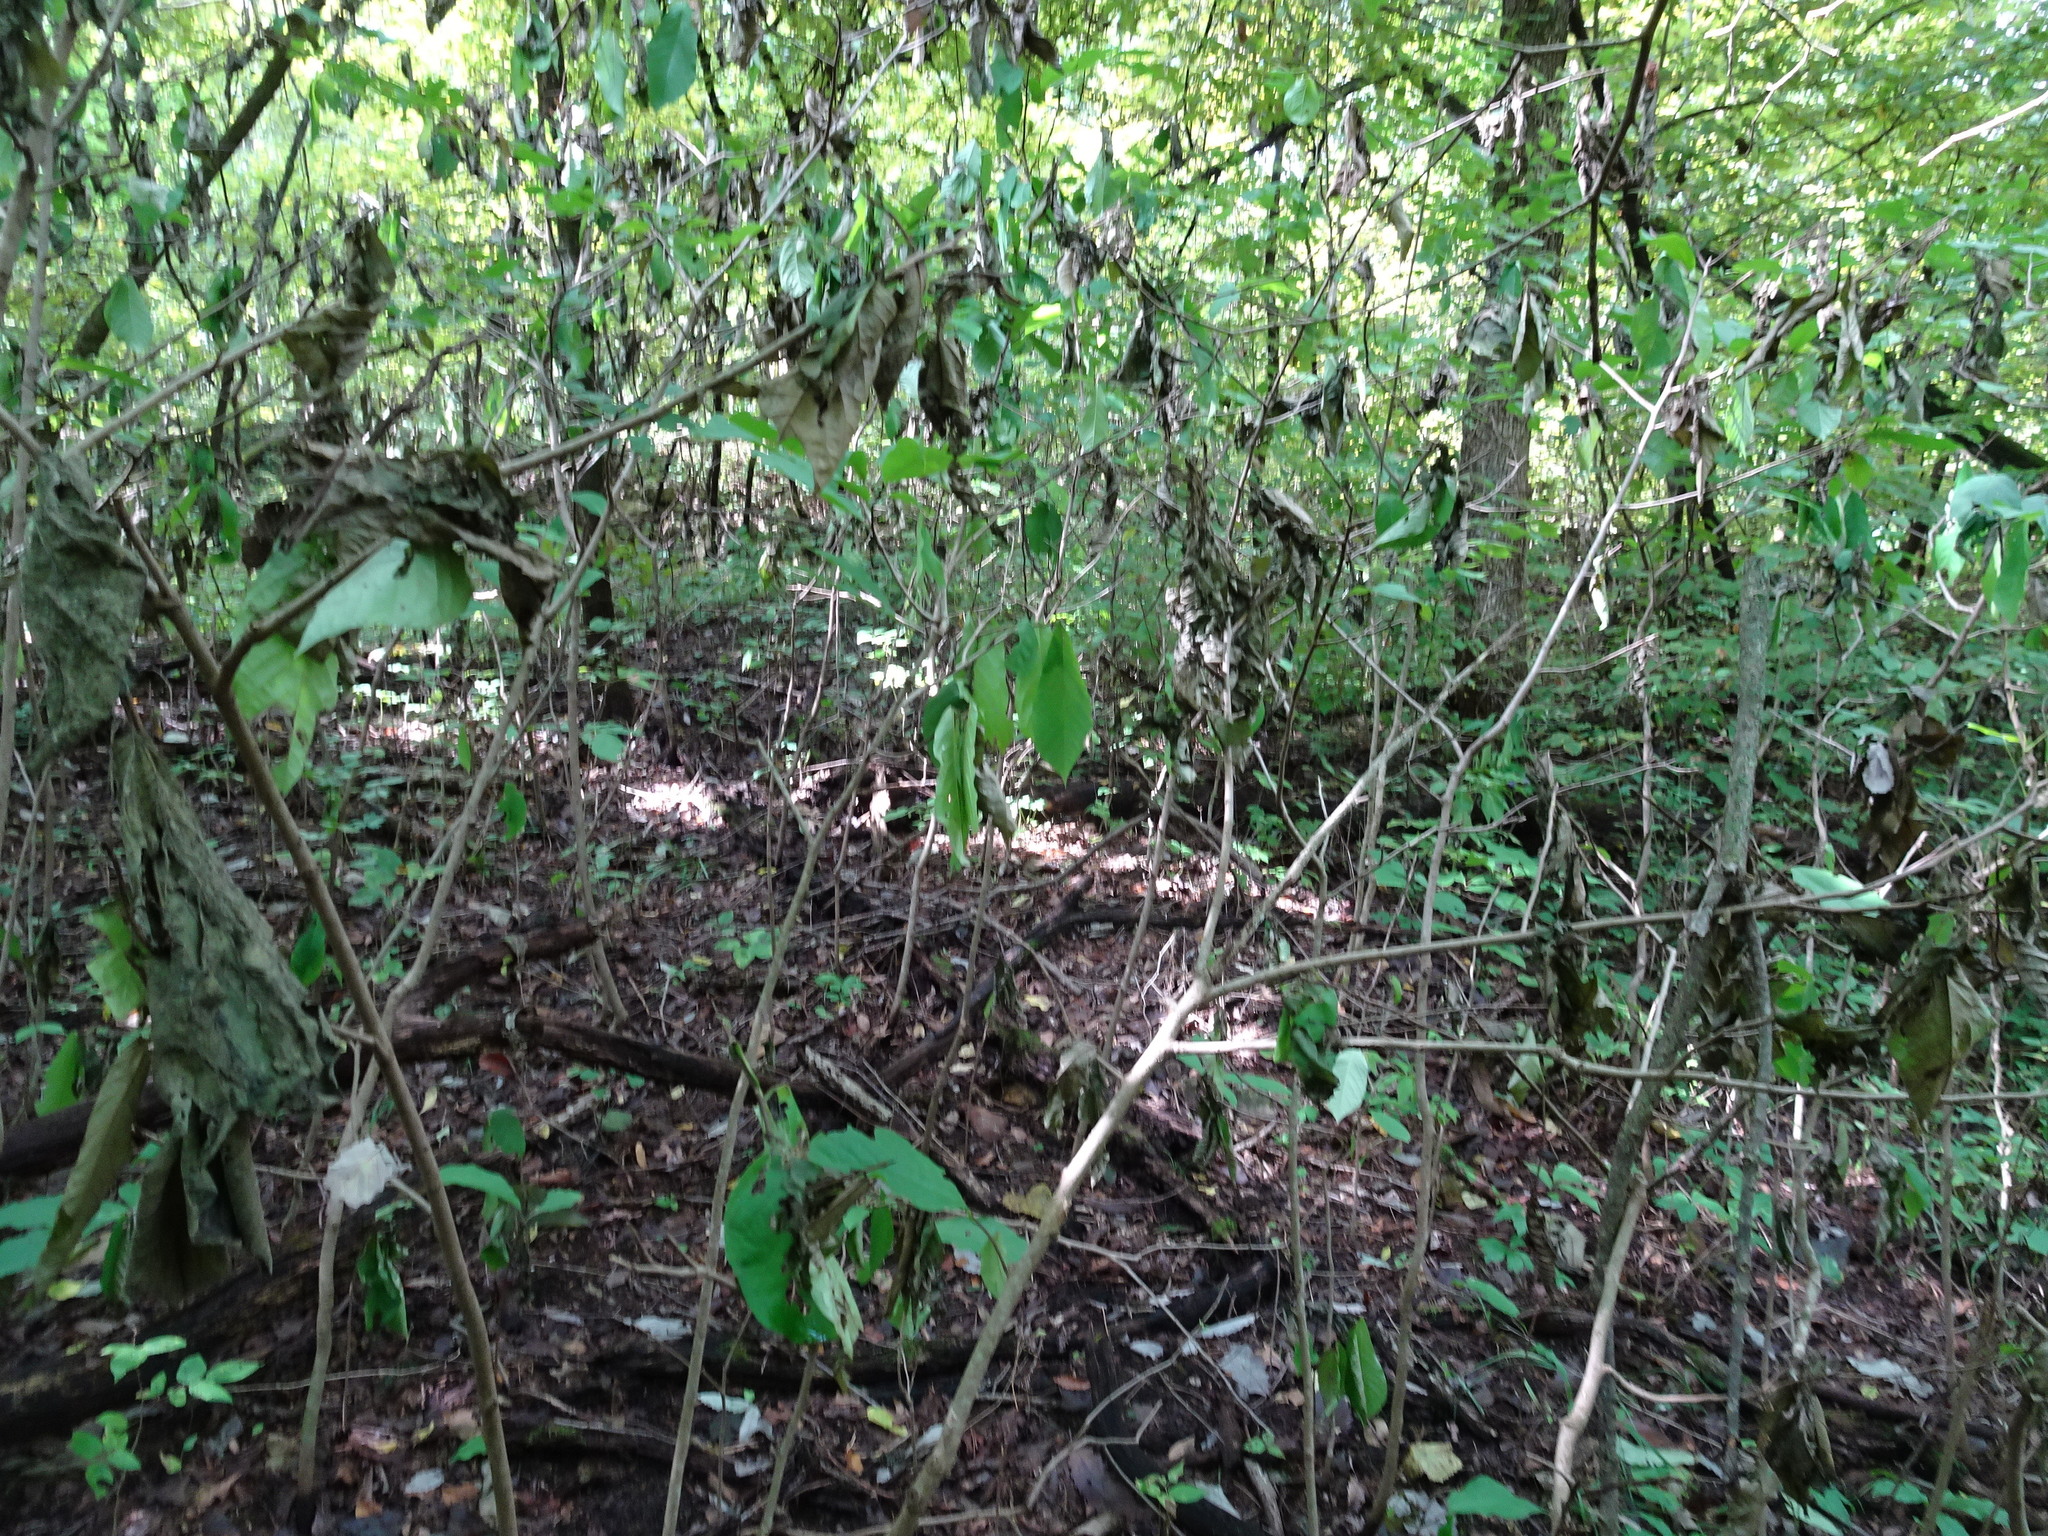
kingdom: Plantae
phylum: Tracheophyta
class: Magnoliopsida
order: Magnoliales
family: Annonaceae
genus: Asimina
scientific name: Asimina triloba
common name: Dog-banana
